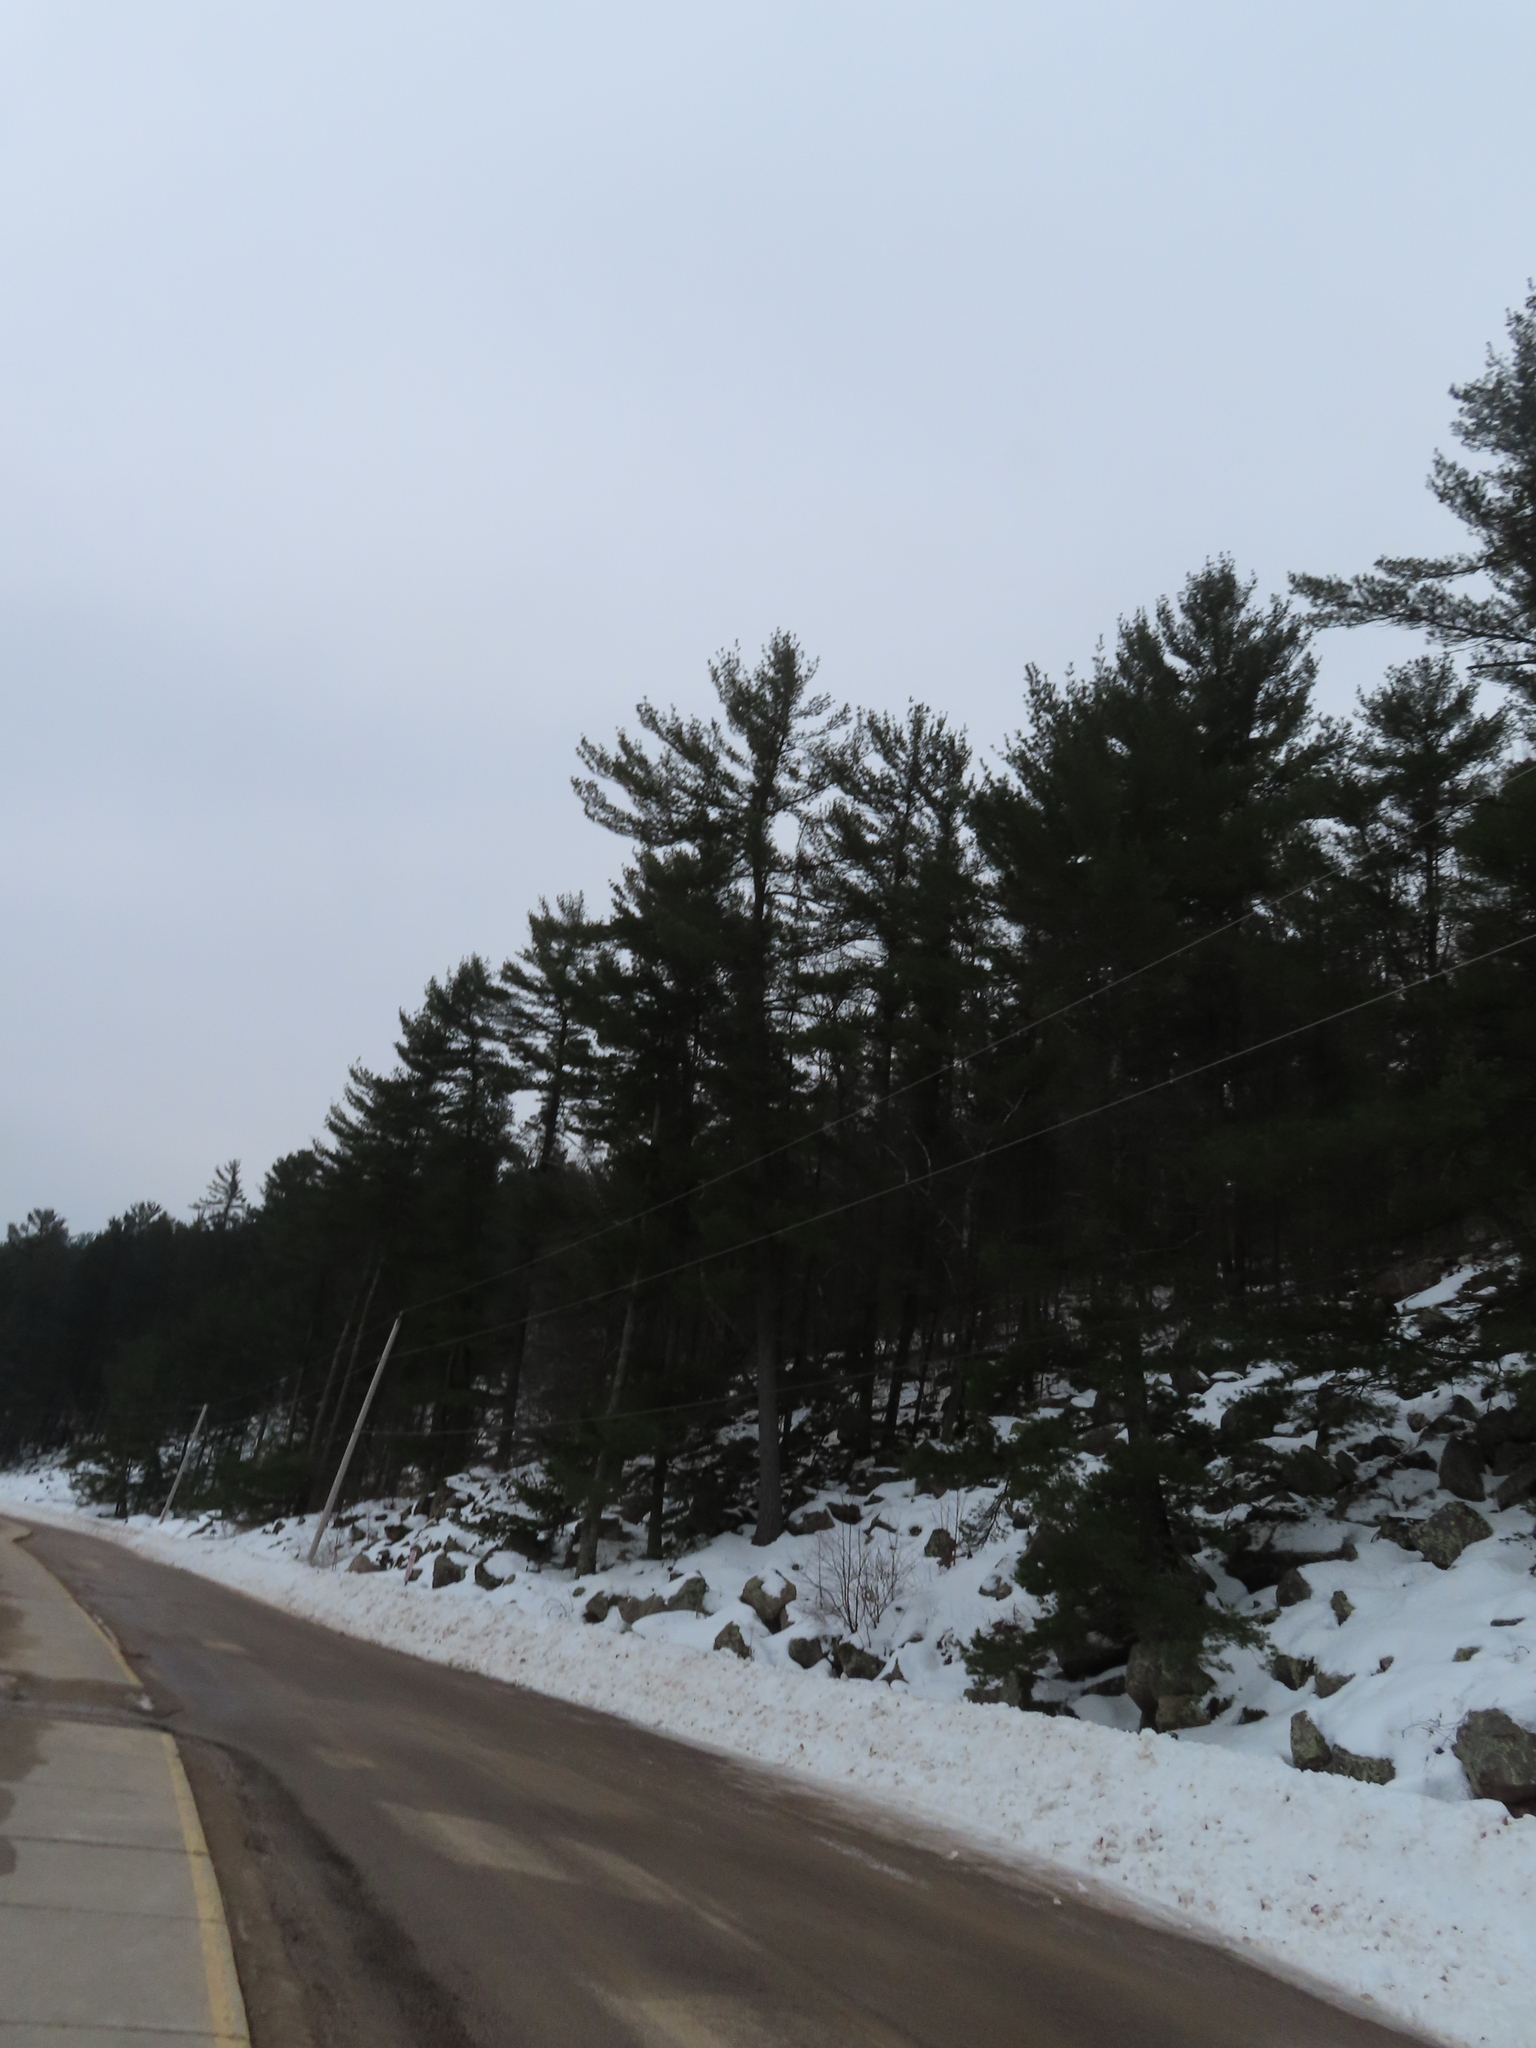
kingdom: Plantae
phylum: Tracheophyta
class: Pinopsida
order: Pinales
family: Pinaceae
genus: Pinus
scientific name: Pinus strobus
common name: Weymouth pine
